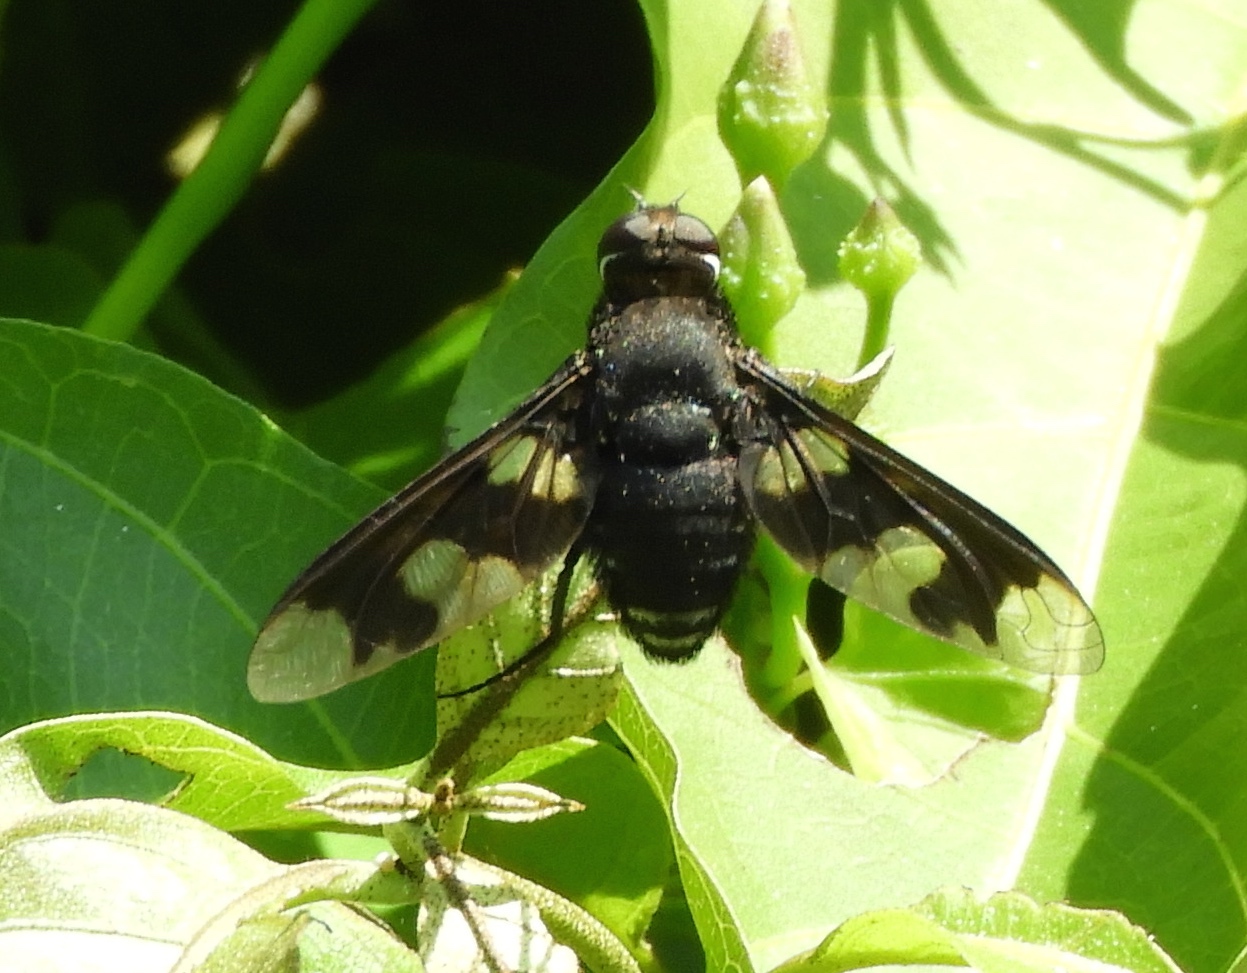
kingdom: Animalia
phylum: Arthropoda
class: Insecta
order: Diptera
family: Bombyliidae
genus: Exoprosopa
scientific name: Exoprosopa
